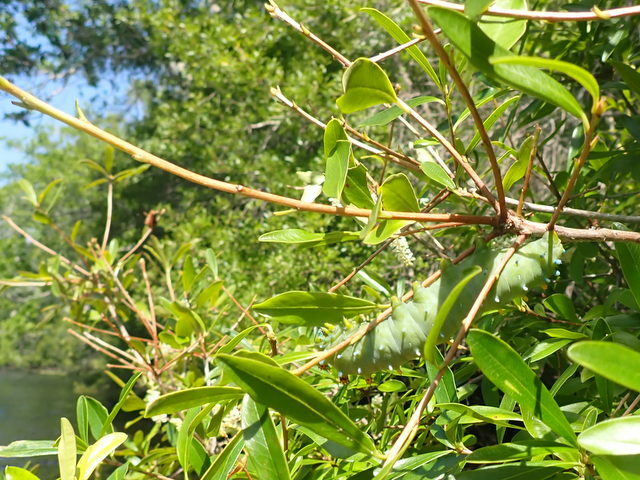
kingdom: Animalia
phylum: Arthropoda
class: Insecta
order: Lepidoptera
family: Saturniidae
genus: Hyalophora
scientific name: Hyalophora cecropia
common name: Cecropia silkmoth
